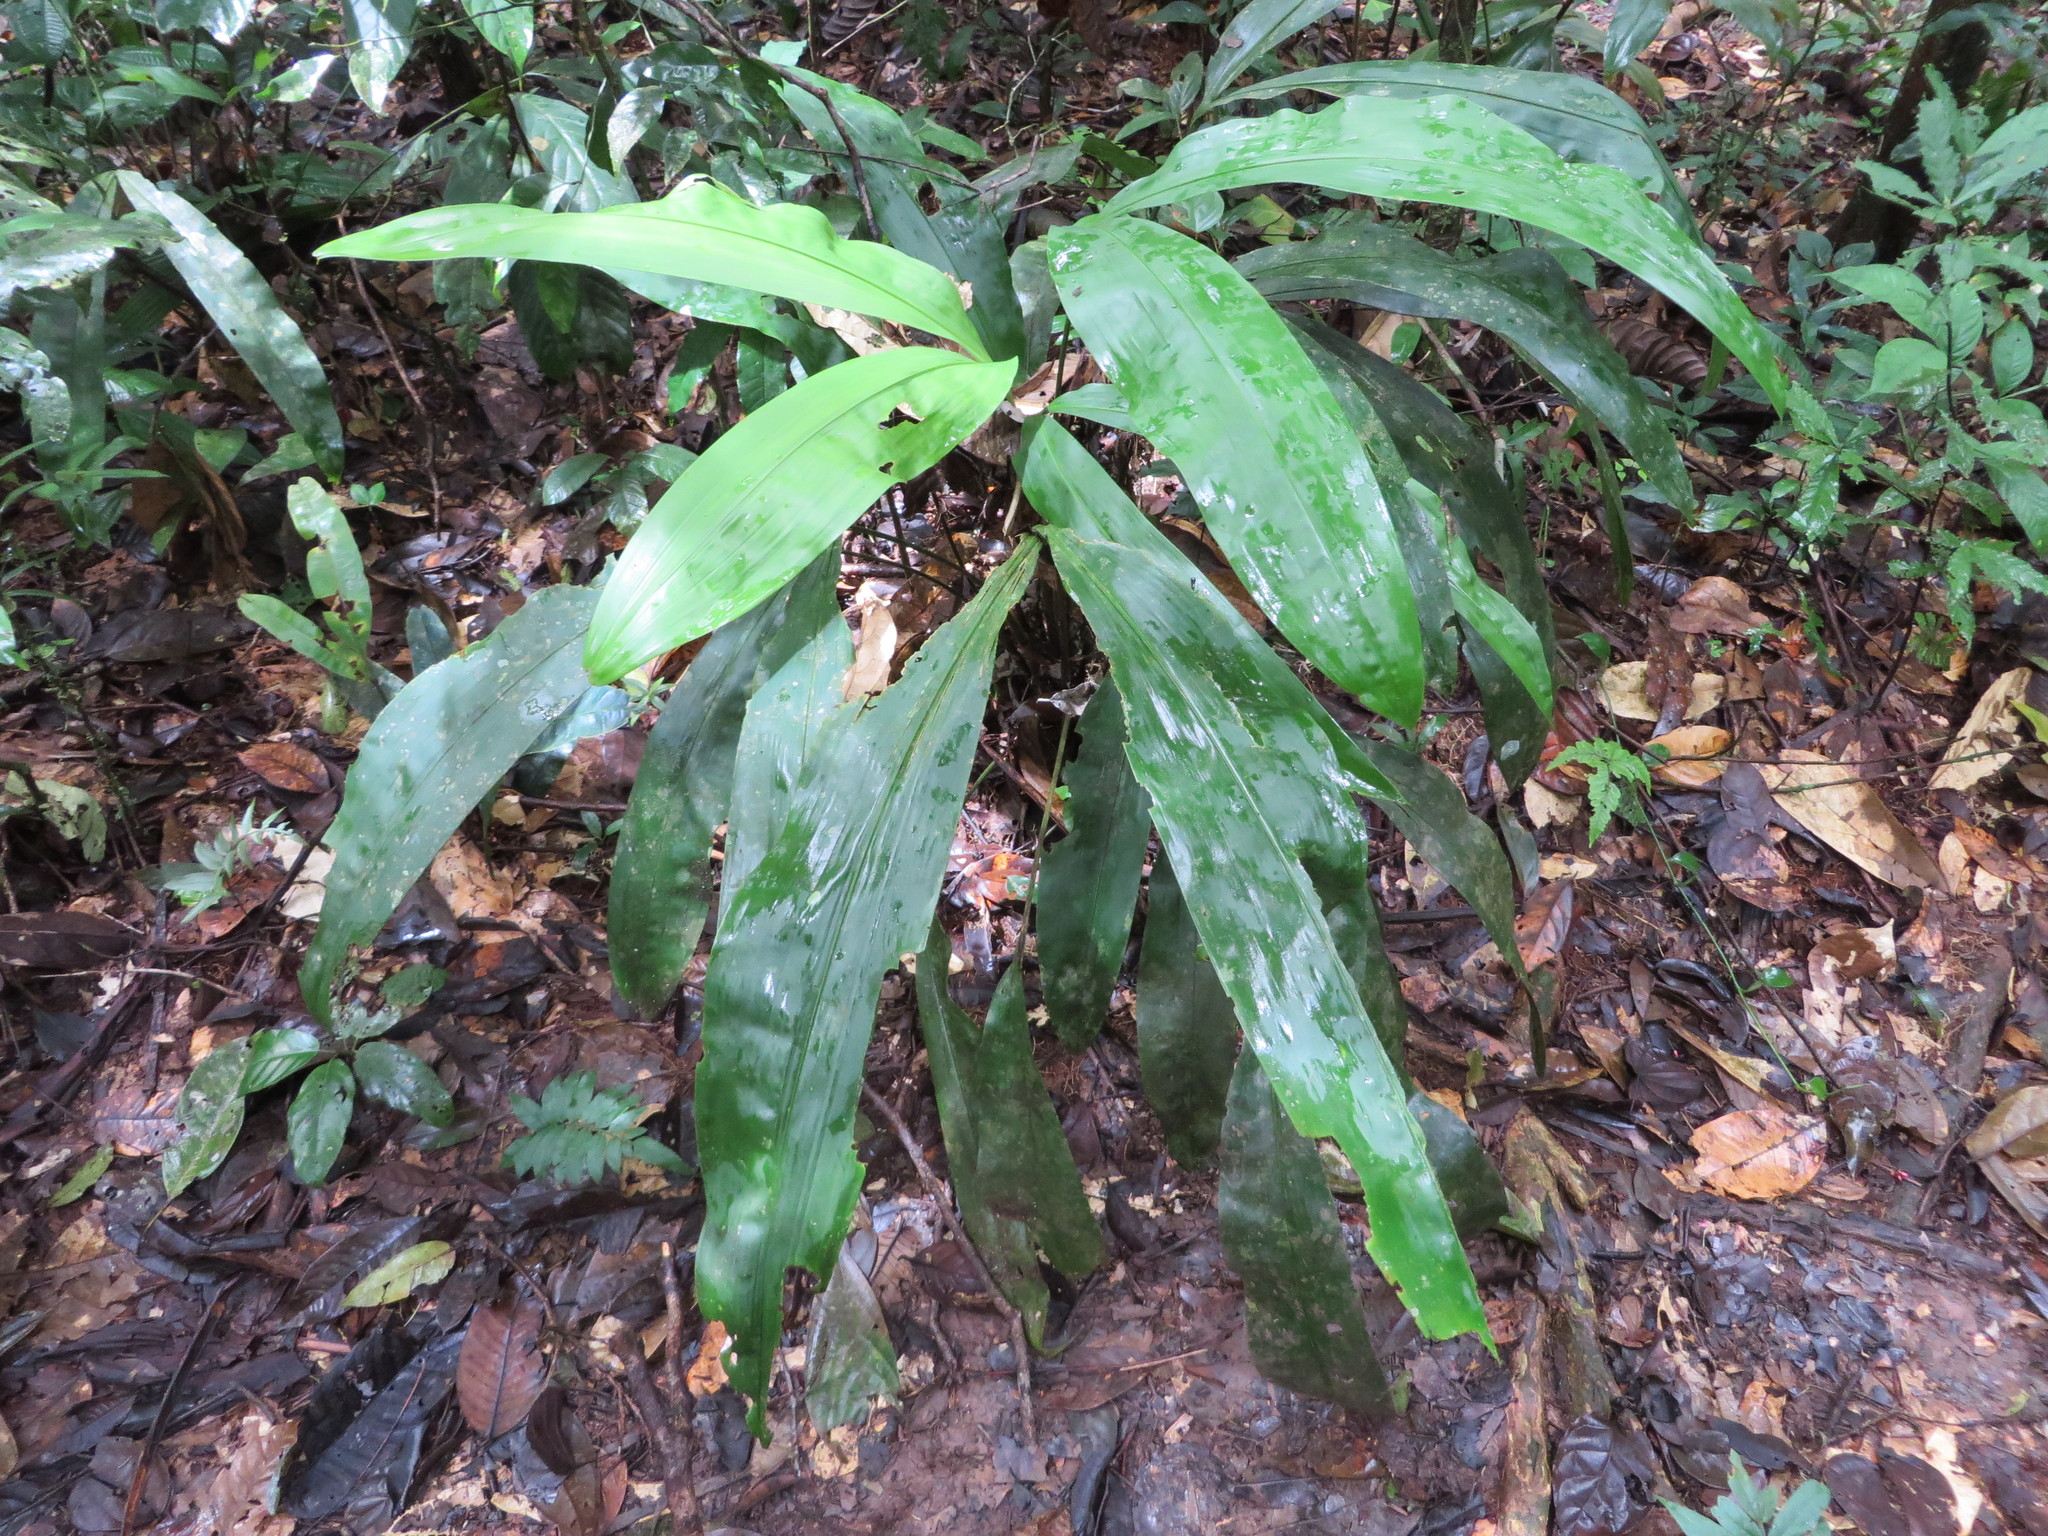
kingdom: Plantae
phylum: Tracheophyta
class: Liliopsida
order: Pandanales
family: Cyclanthaceae
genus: Cyclanthus
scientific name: Cyclanthus bipartitus
